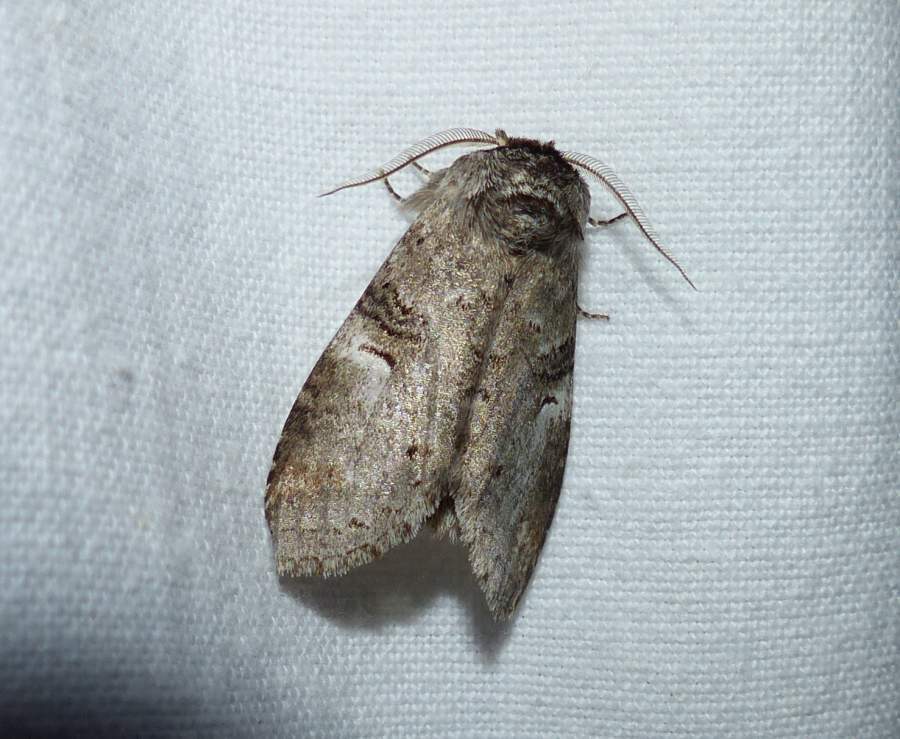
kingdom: Animalia
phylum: Arthropoda
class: Insecta
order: Lepidoptera
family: Notodontidae
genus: Ellida
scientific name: Ellida caniplaga
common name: Linden prominent
